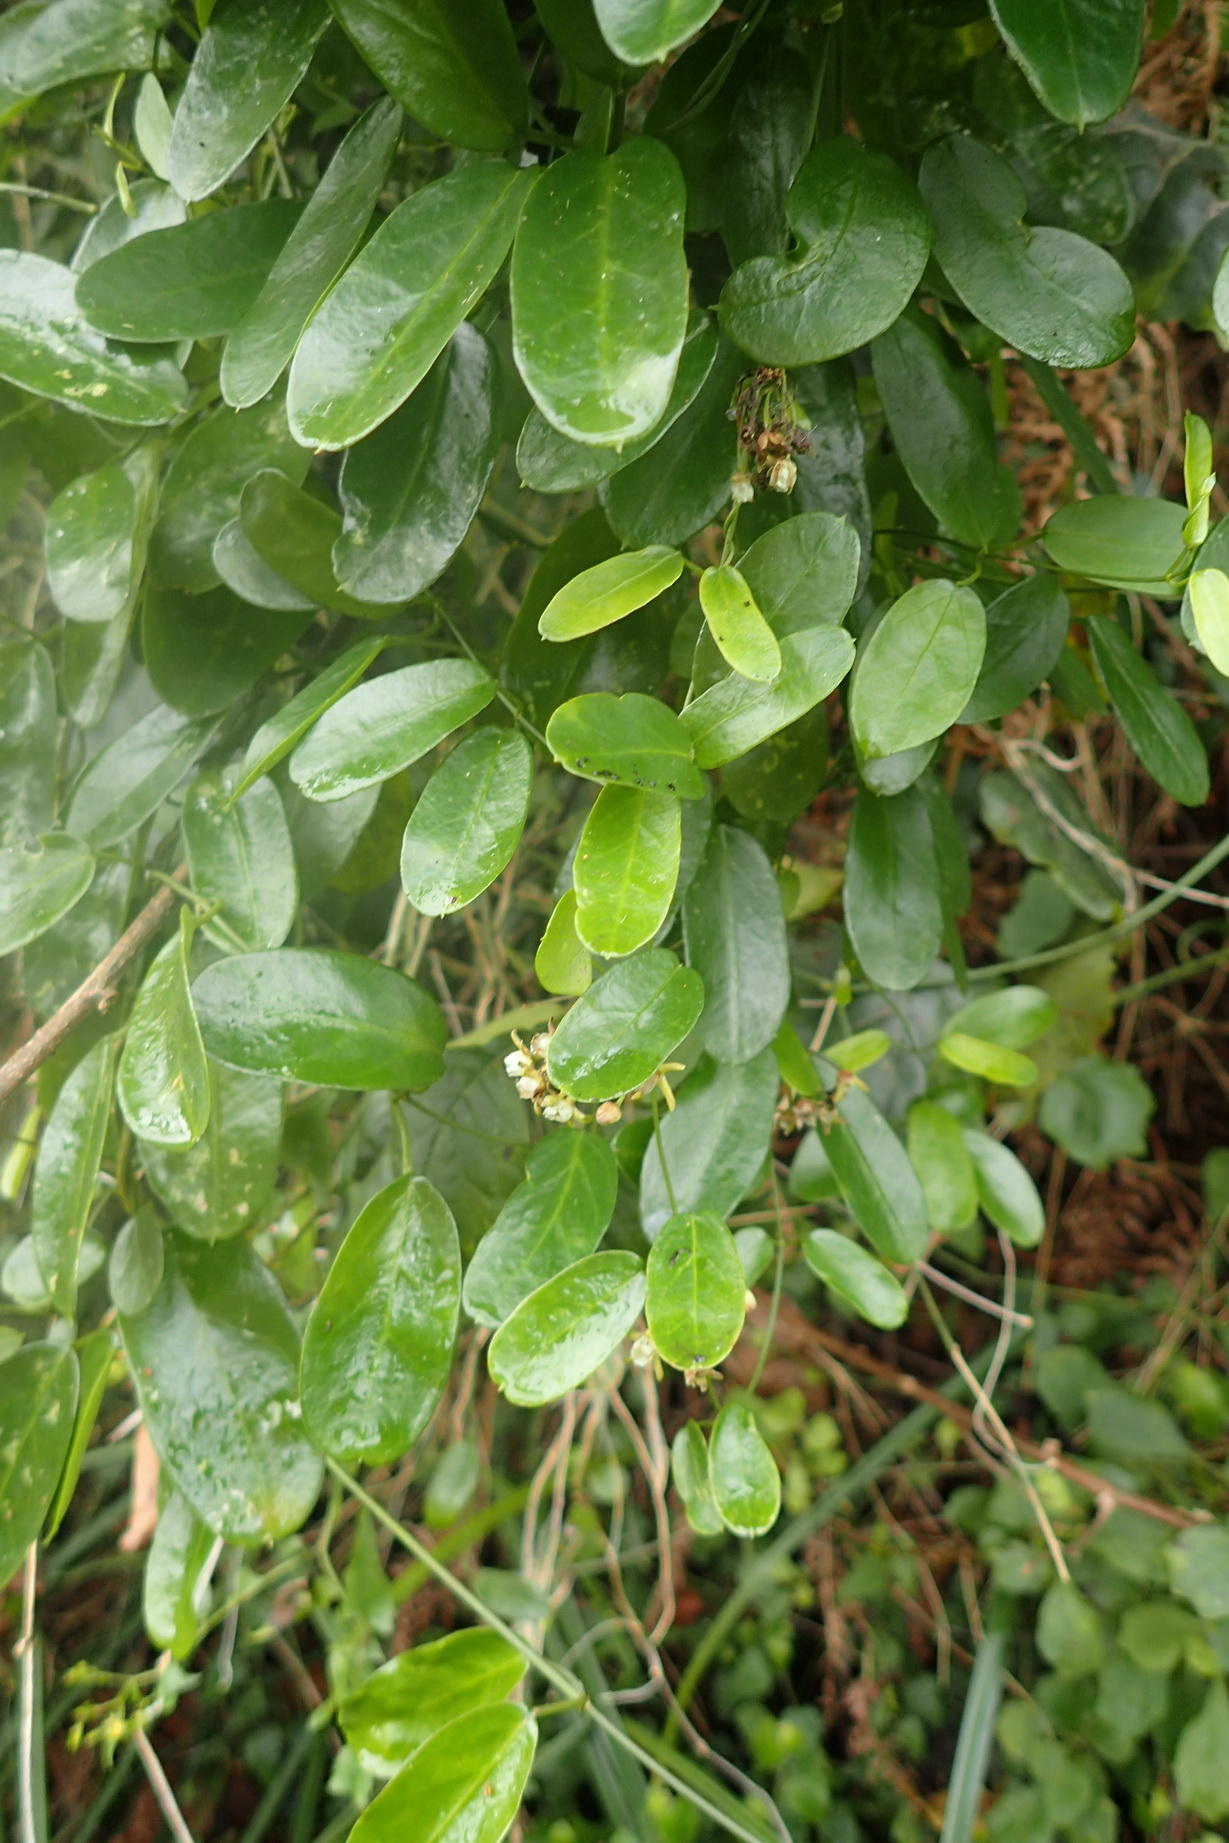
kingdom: Plantae
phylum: Tracheophyta
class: Magnoliopsida
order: Gentianales
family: Apocynaceae
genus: Cynanchum
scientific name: Cynanchum ellipticum
